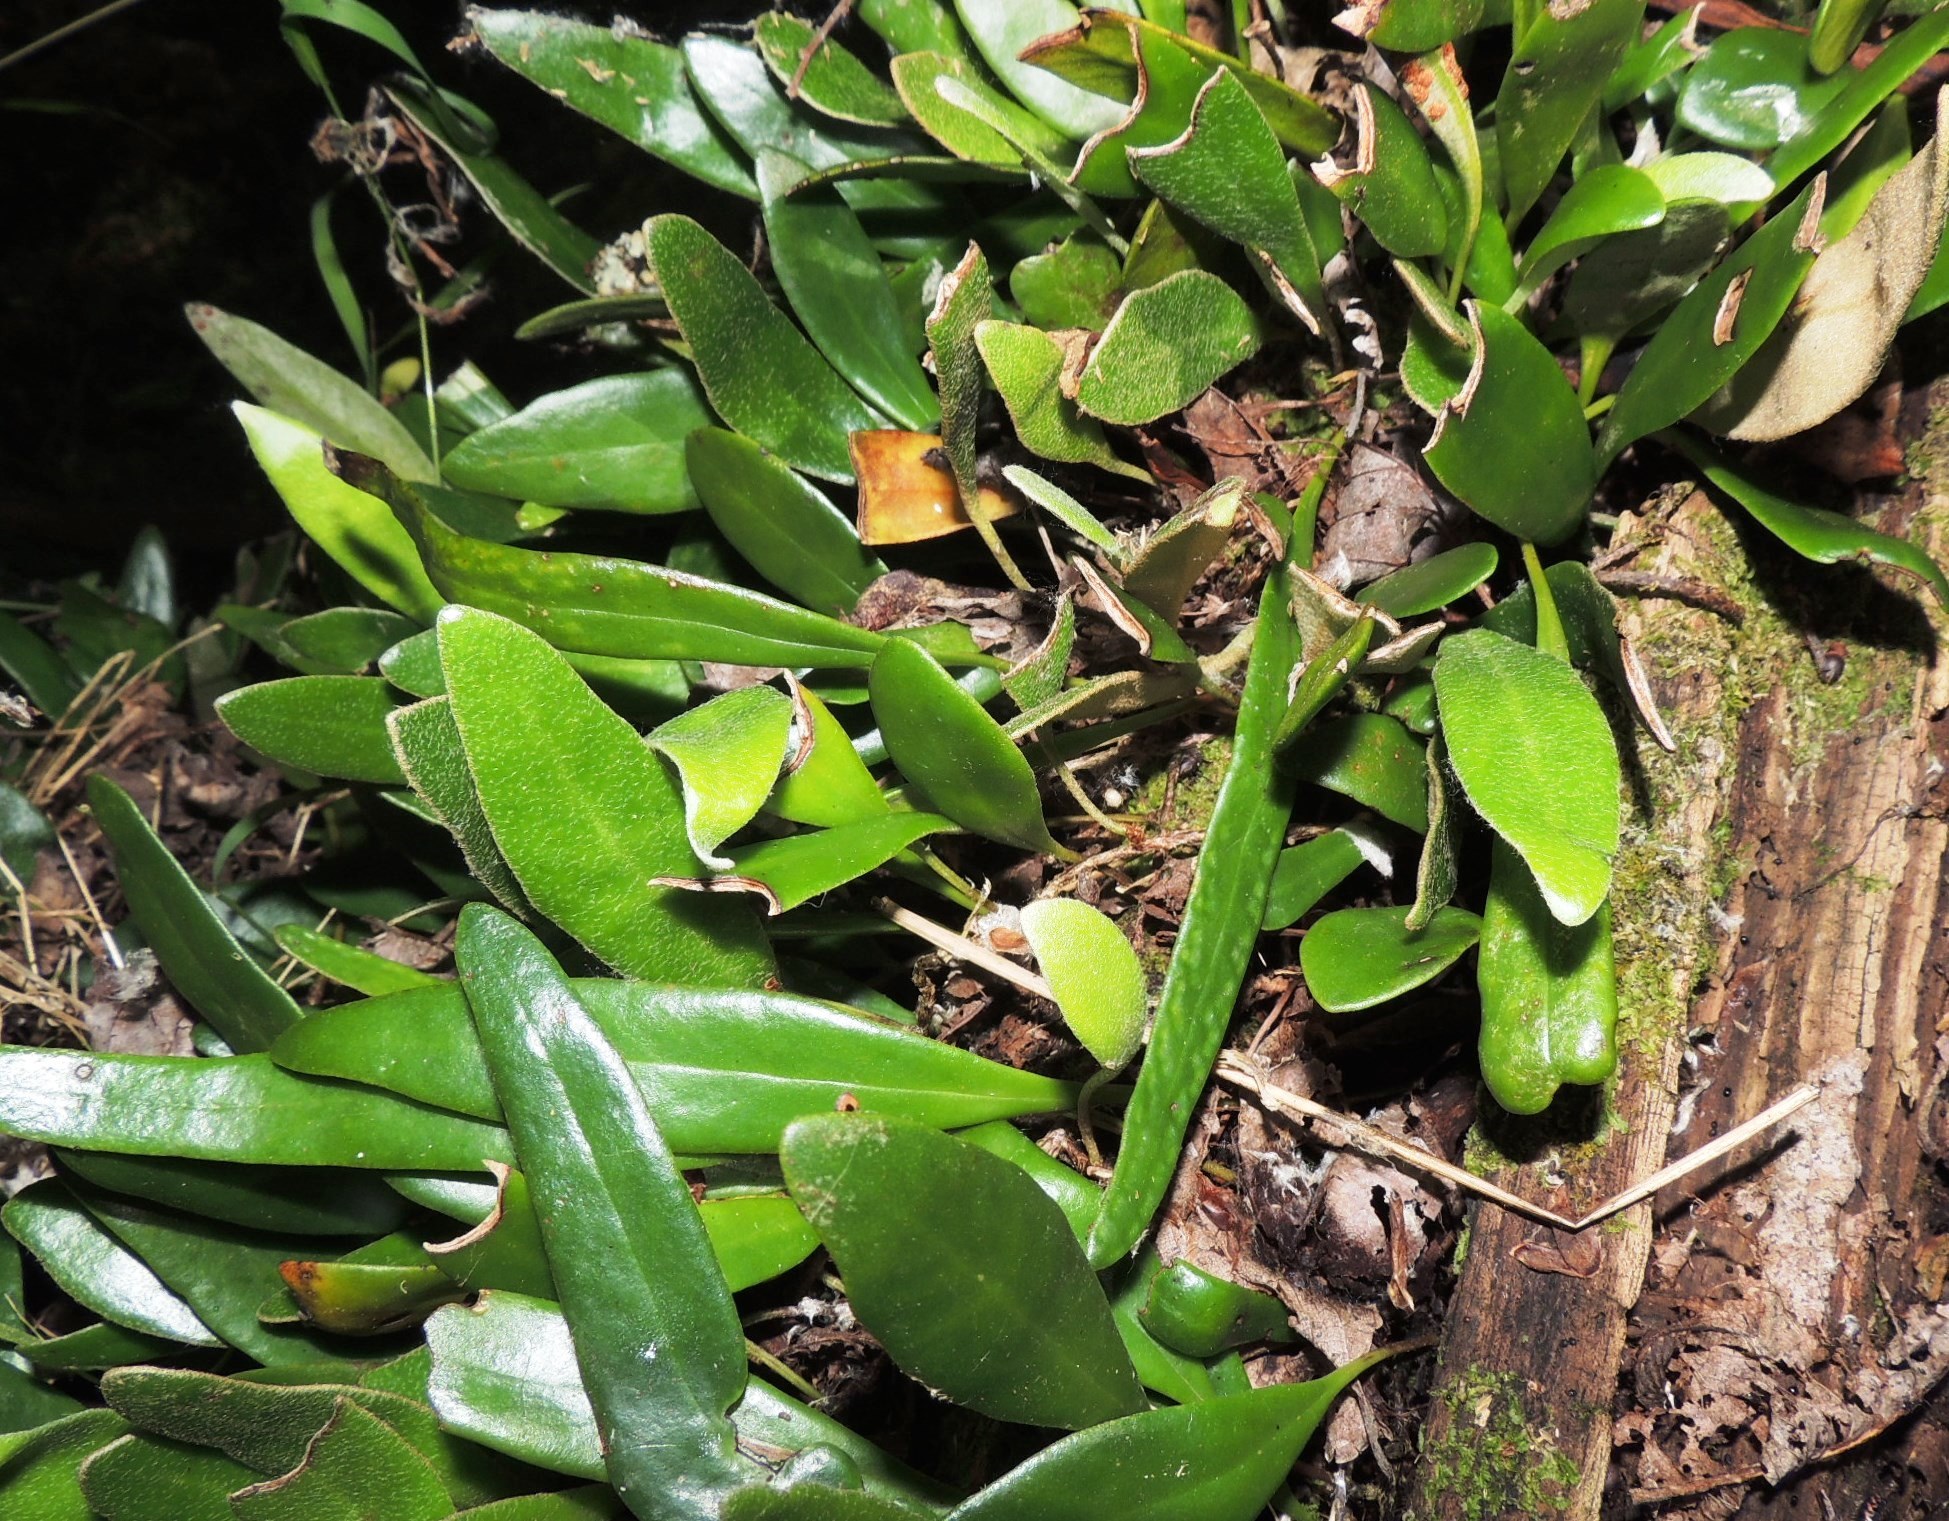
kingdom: Plantae
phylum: Tracheophyta
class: Polypodiopsida
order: Polypodiales
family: Polypodiaceae
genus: Pyrrosia
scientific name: Pyrrosia eleagnifolia
